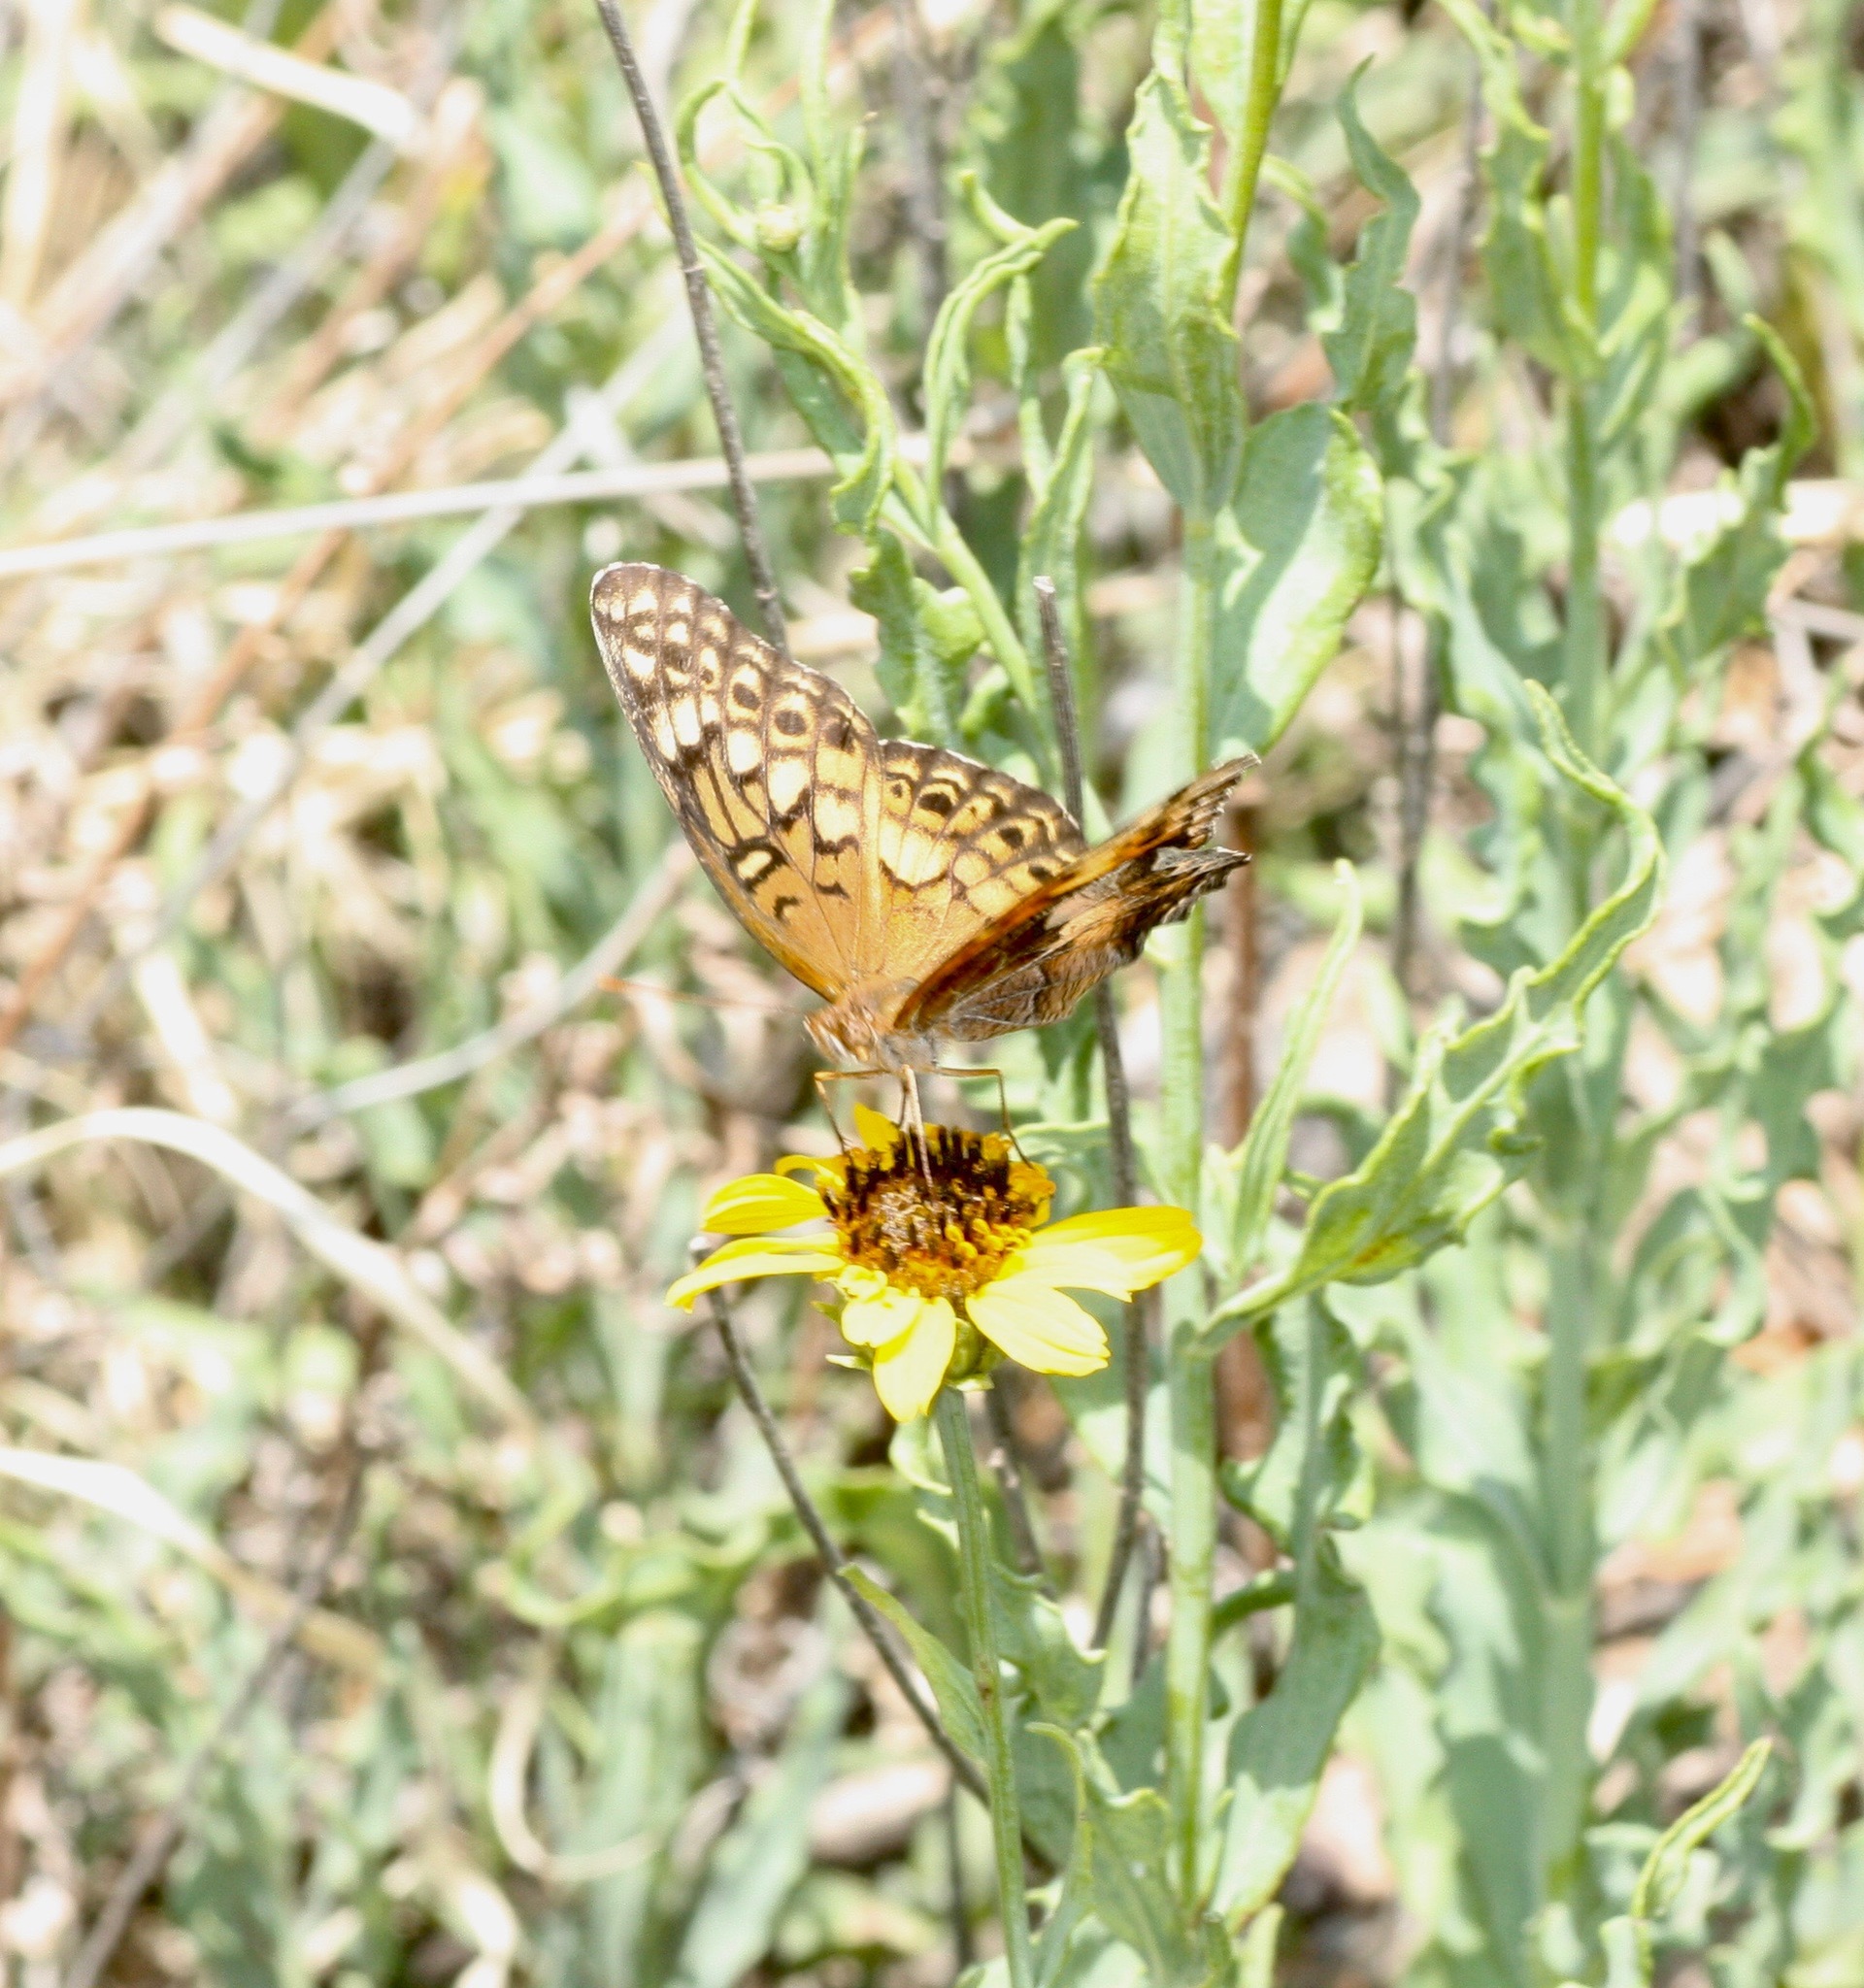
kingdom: Animalia
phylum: Arthropoda
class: Insecta
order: Lepidoptera
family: Nymphalidae
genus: Euptoieta
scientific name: Euptoieta claudia
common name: Variegated fritillary
